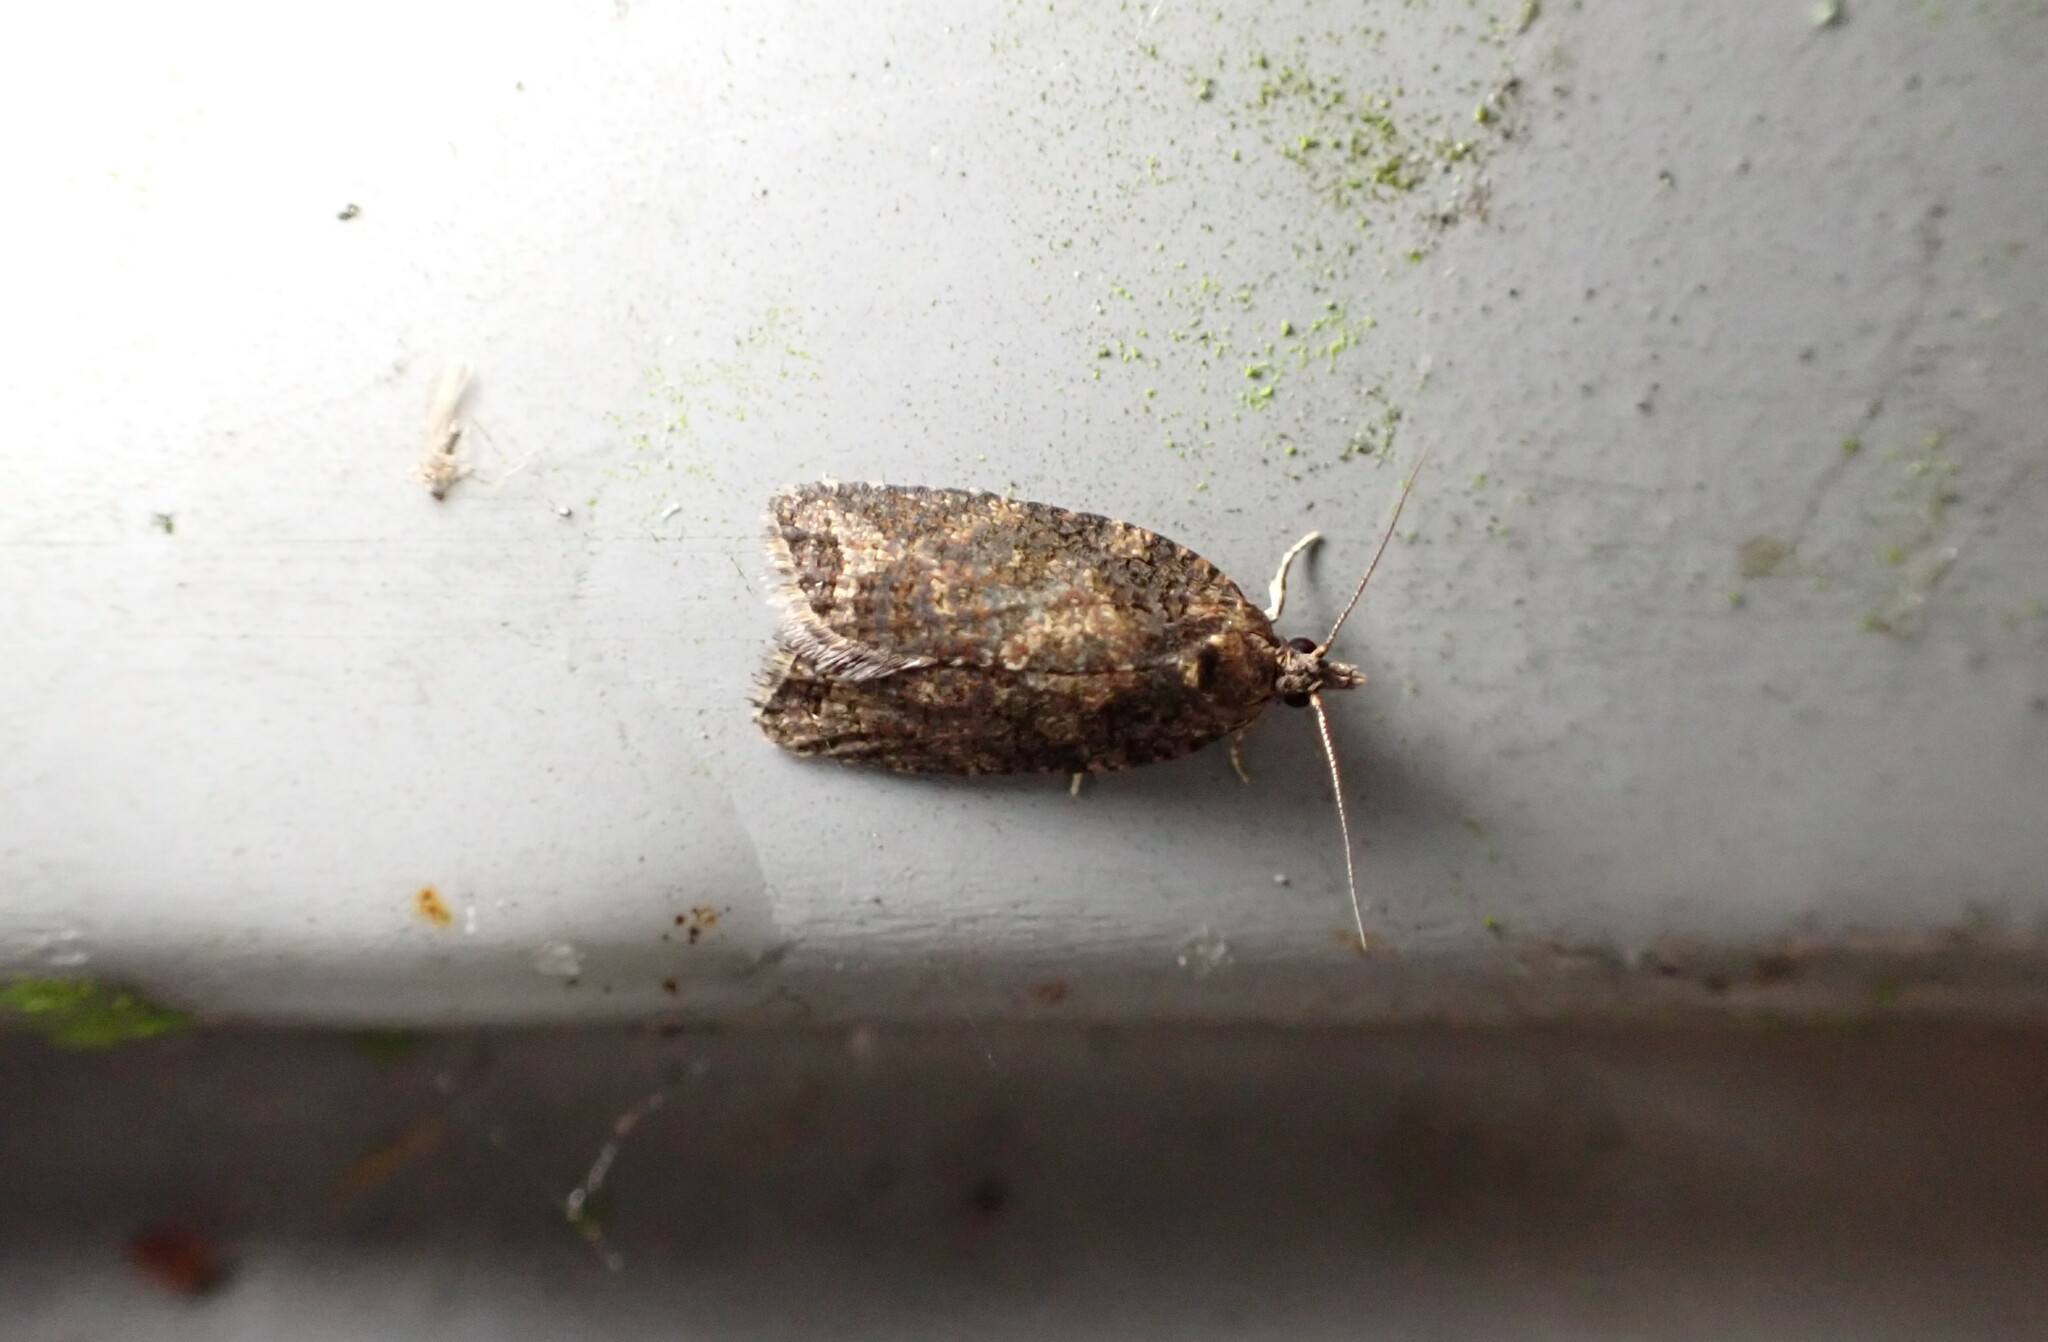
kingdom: Animalia
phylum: Arthropoda
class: Insecta
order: Lepidoptera
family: Tortricidae
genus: Capua
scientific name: Capua intractana
